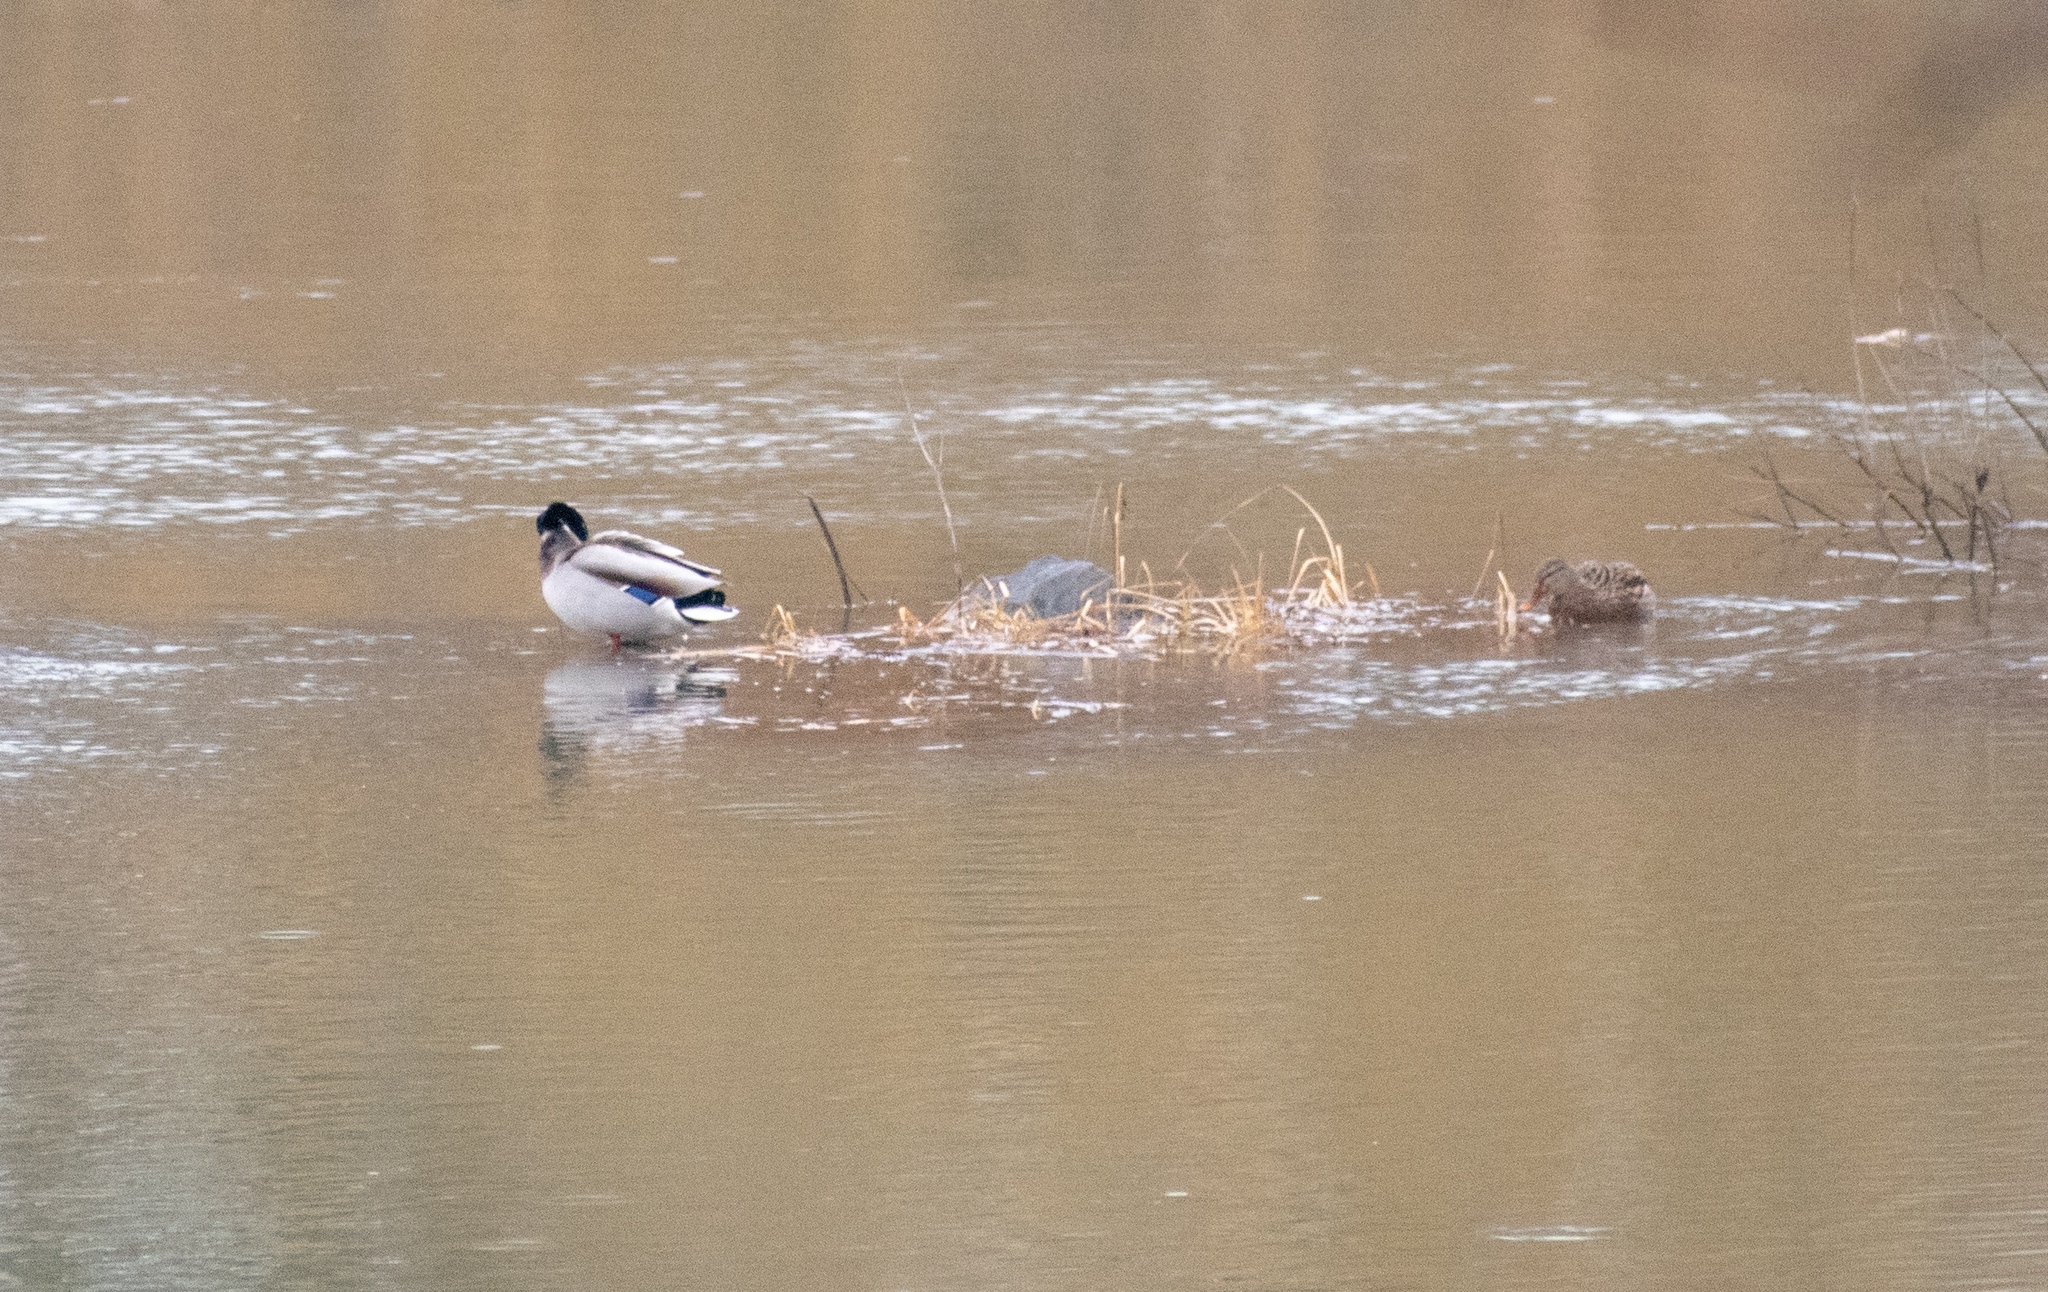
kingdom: Animalia
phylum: Chordata
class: Aves
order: Anseriformes
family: Anatidae
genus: Anas
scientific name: Anas platyrhynchos
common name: Mallard
